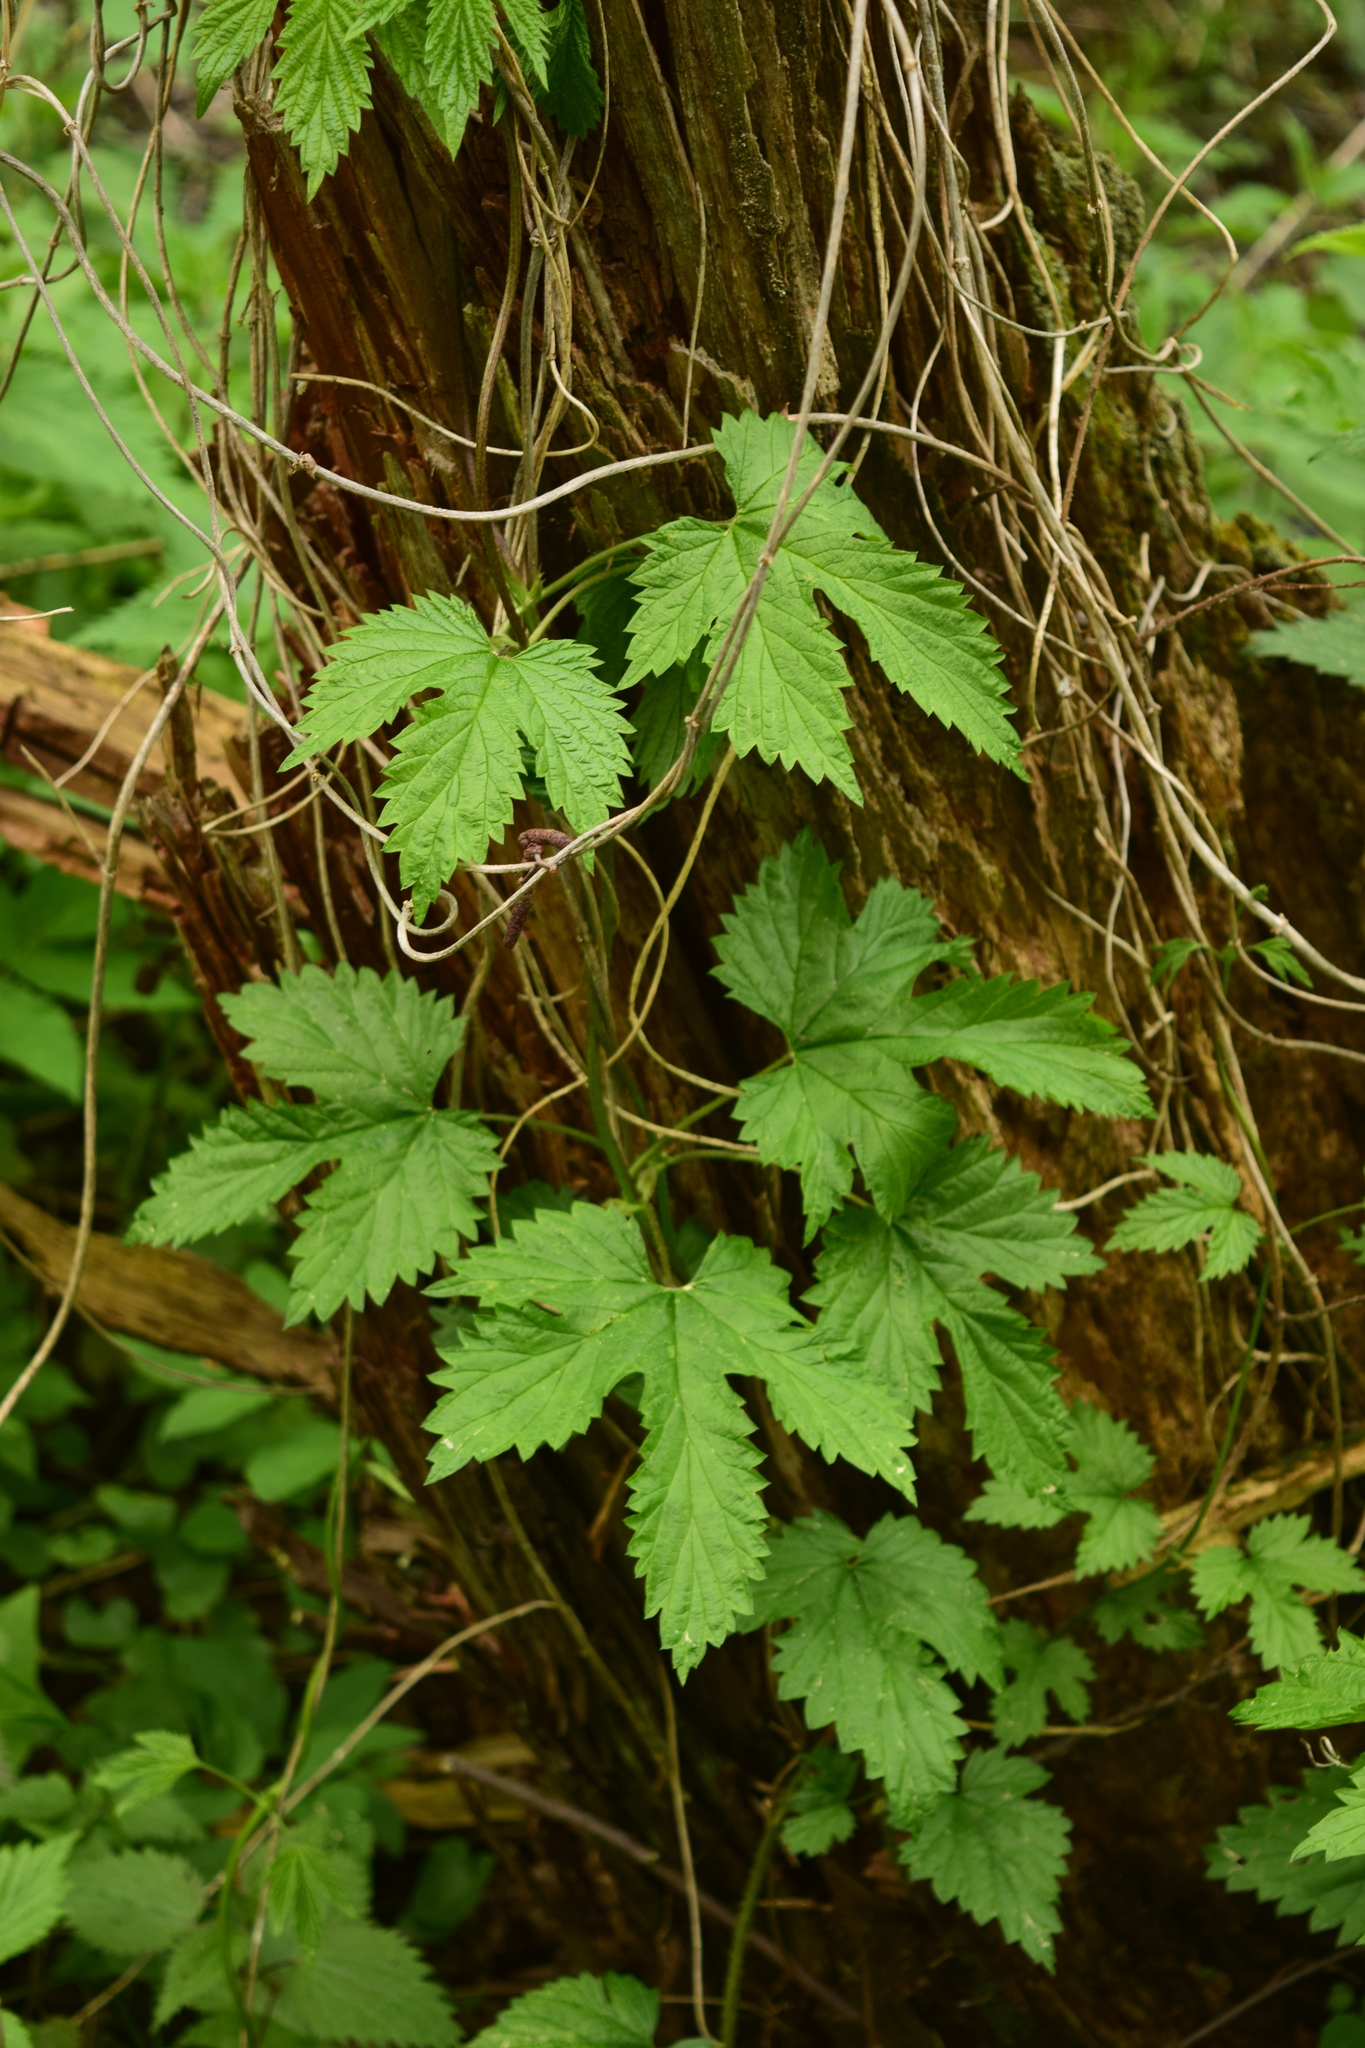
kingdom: Plantae
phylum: Tracheophyta
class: Magnoliopsida
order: Rosales
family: Cannabaceae
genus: Humulus
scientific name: Humulus lupulus
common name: Hop
